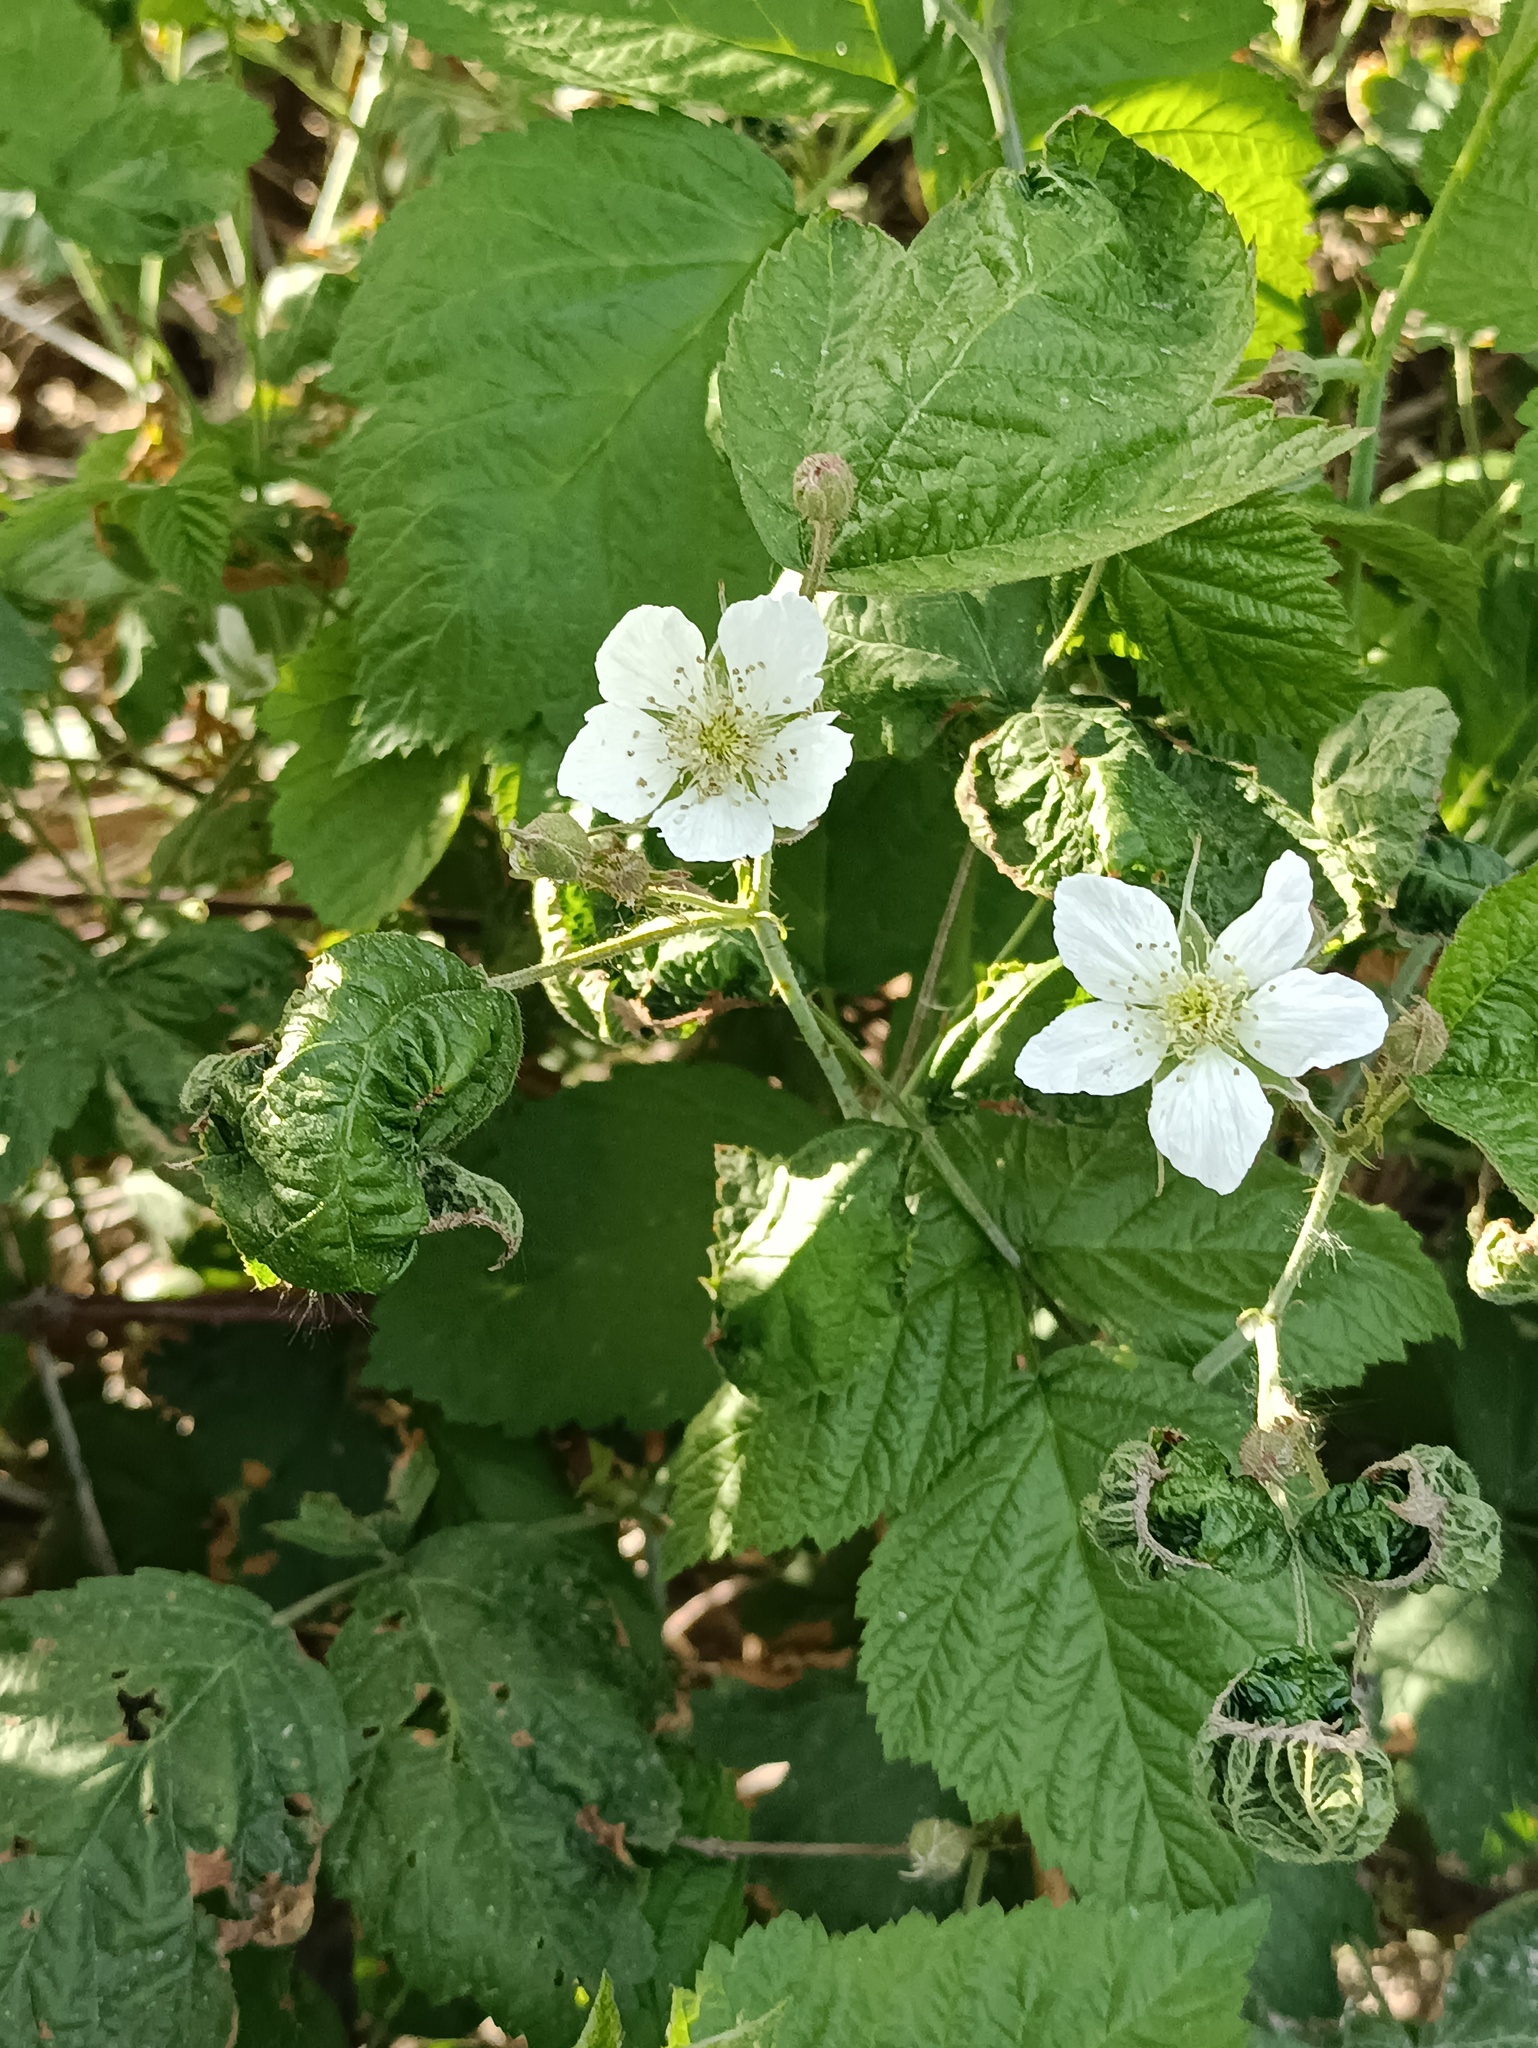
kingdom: Plantae
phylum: Tracheophyta
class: Magnoliopsida
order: Rosales
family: Rosaceae
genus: Rubus
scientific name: Rubus caesius
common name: Dewberry
